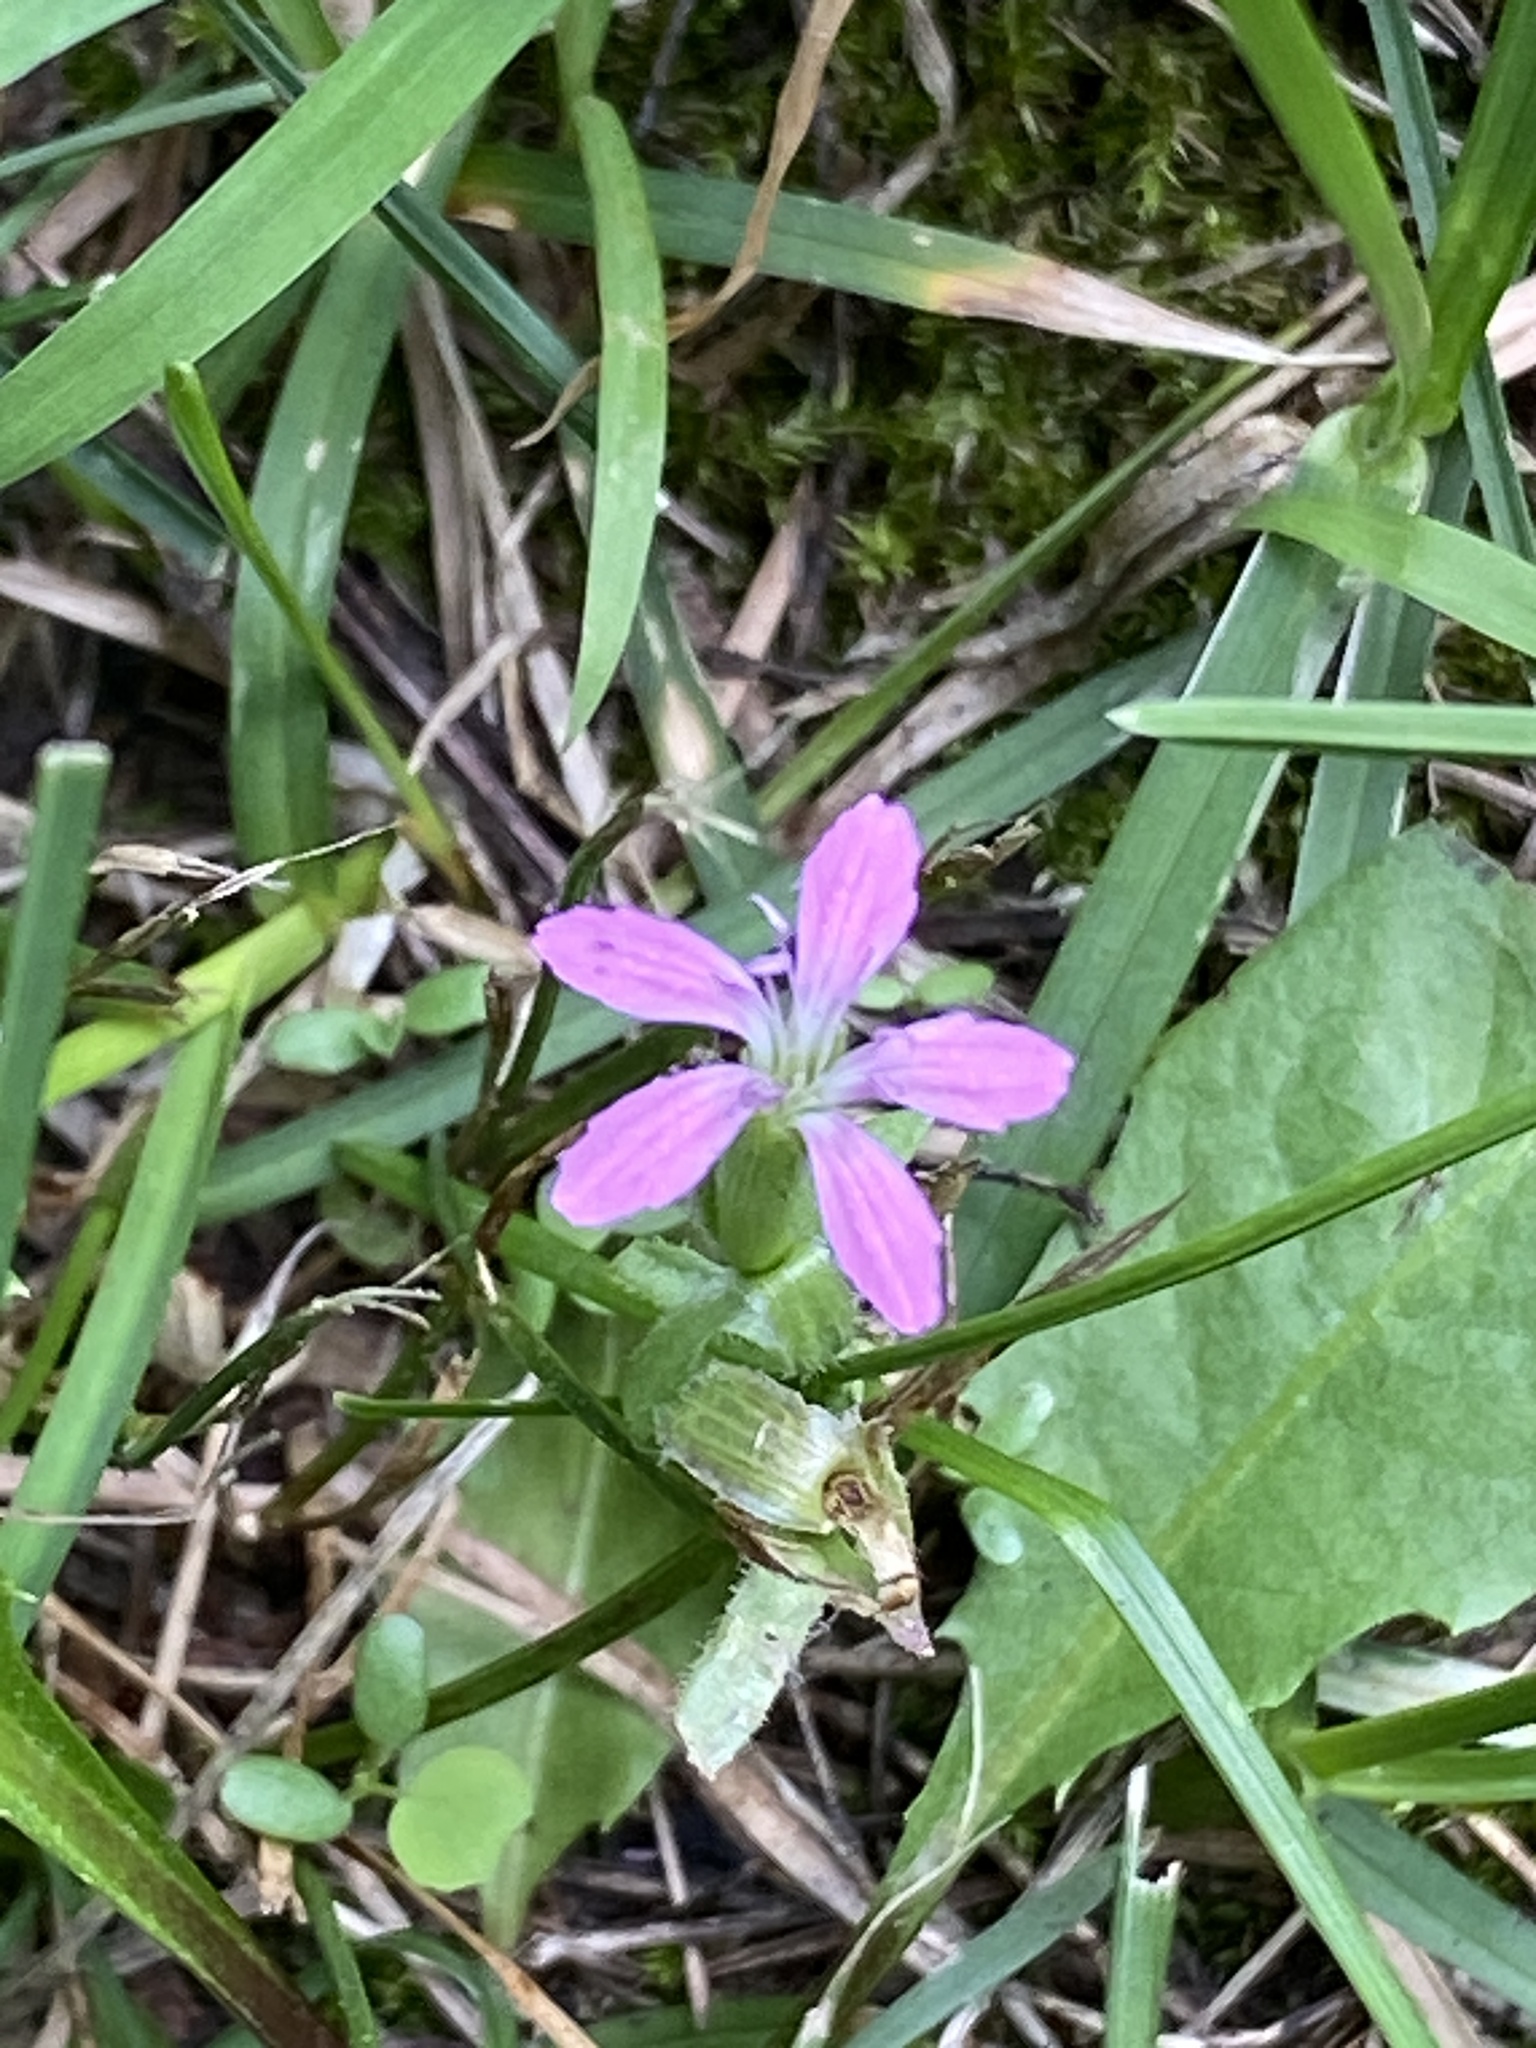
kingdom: Plantae
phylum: Tracheophyta
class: Magnoliopsida
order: Caryophyllales
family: Caryophyllaceae
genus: Dianthus
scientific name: Dianthus armeria
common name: Deptford pink
